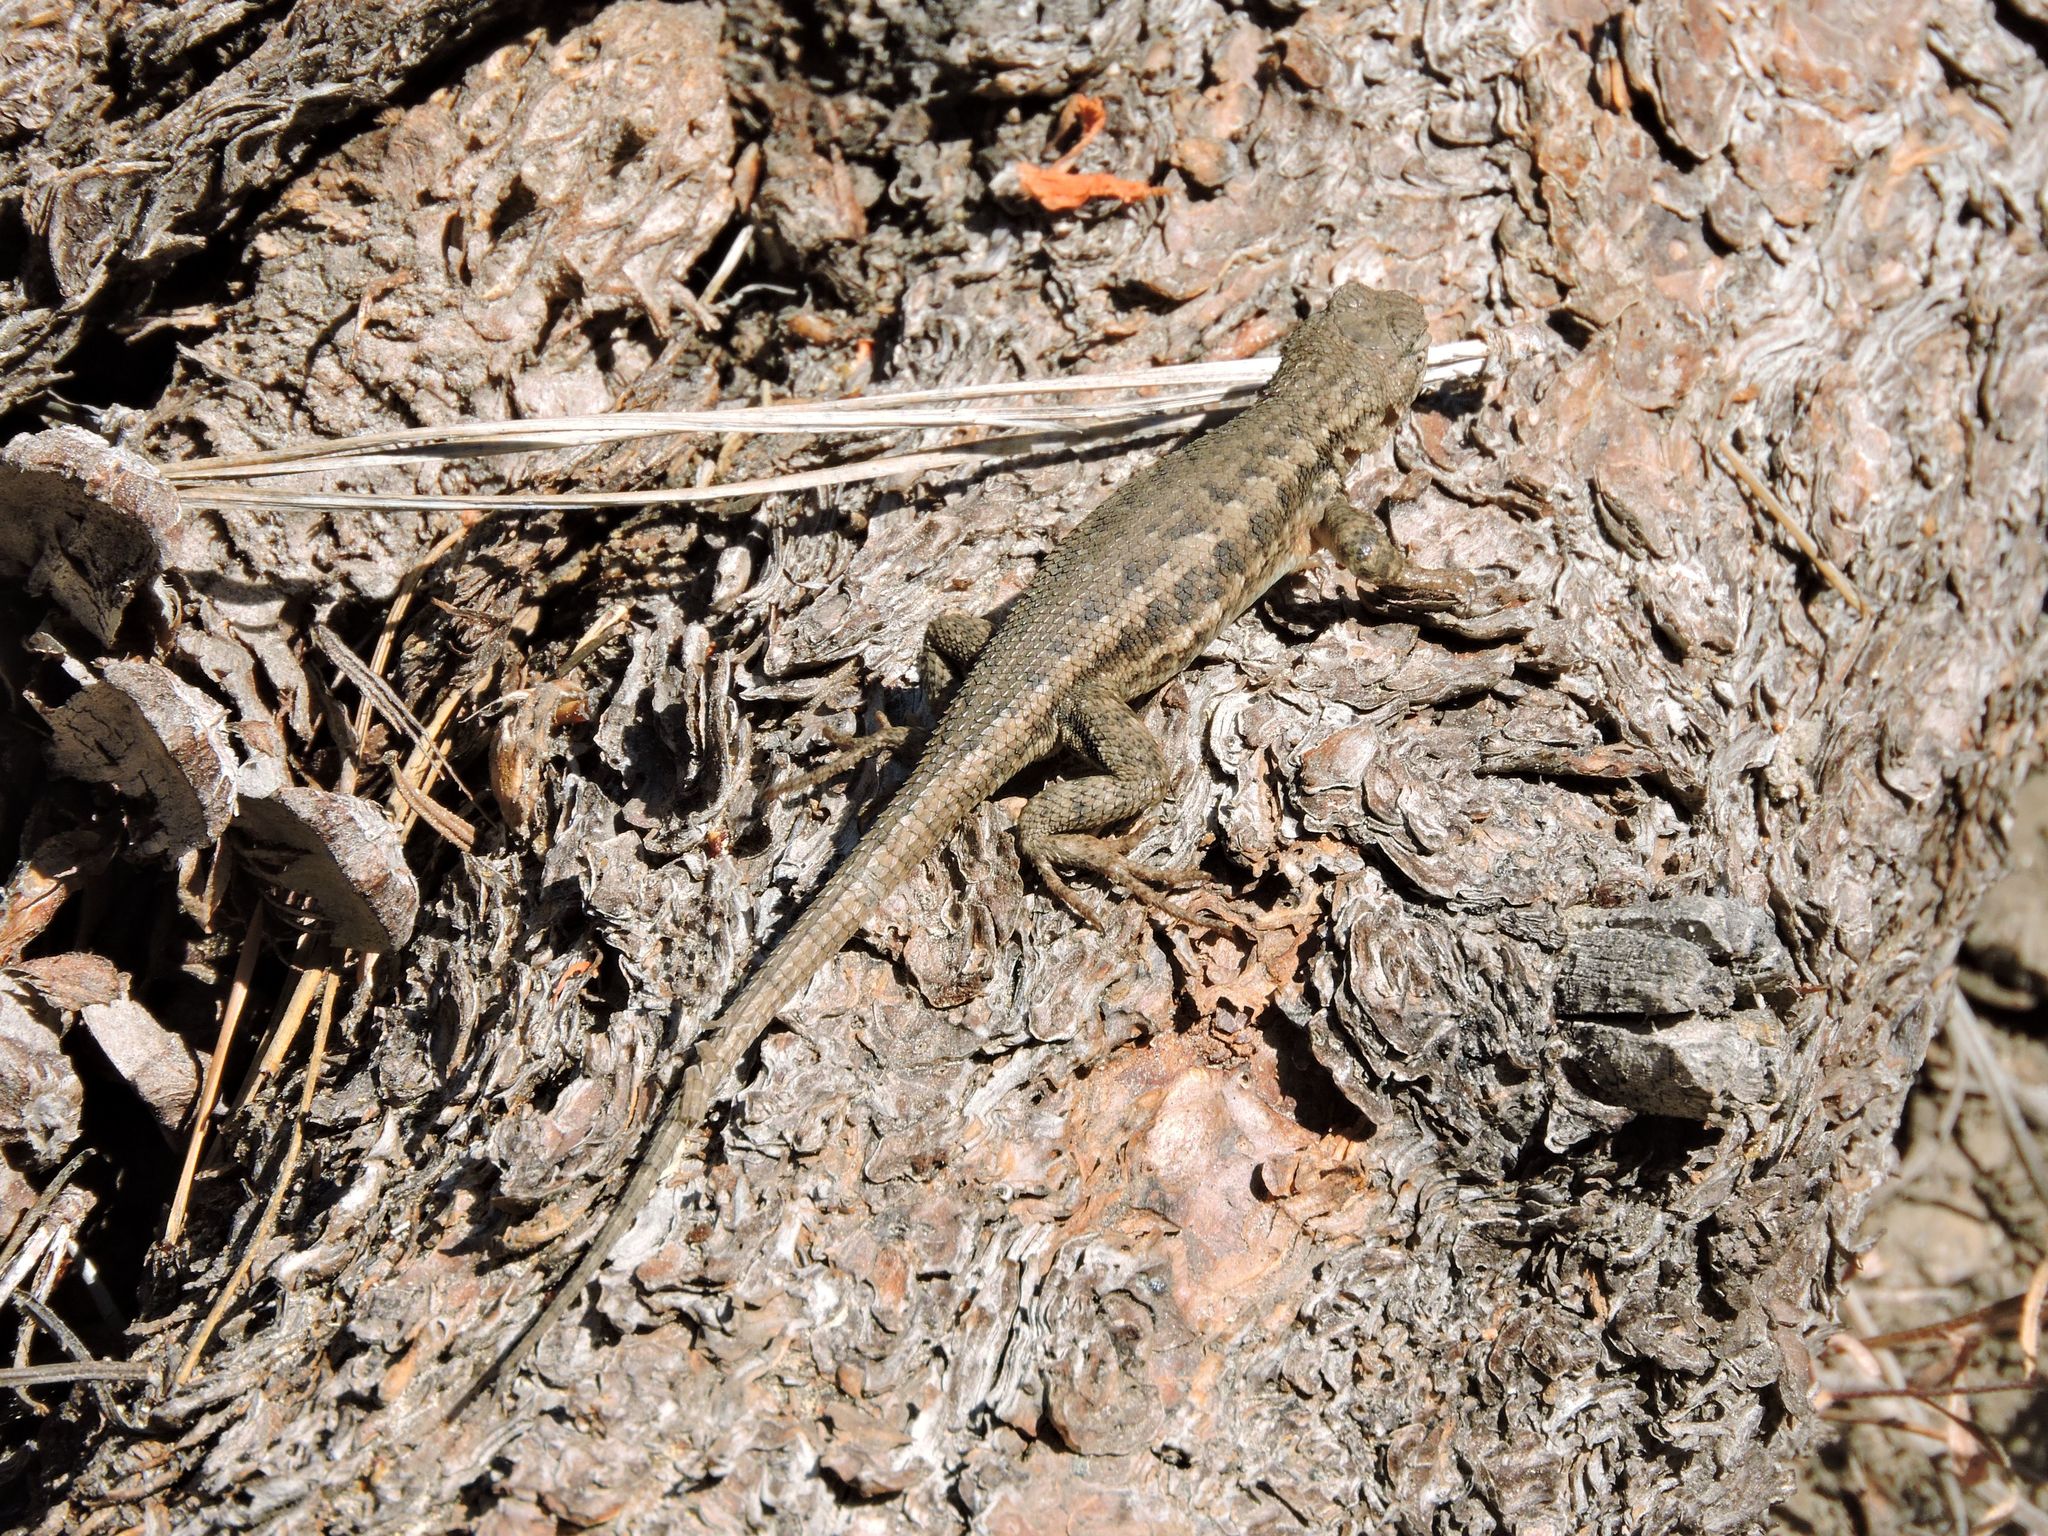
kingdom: Animalia
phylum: Chordata
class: Squamata
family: Phrynosomatidae
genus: Sceloporus
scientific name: Sceloporus occidentalis
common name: Western fence lizard
